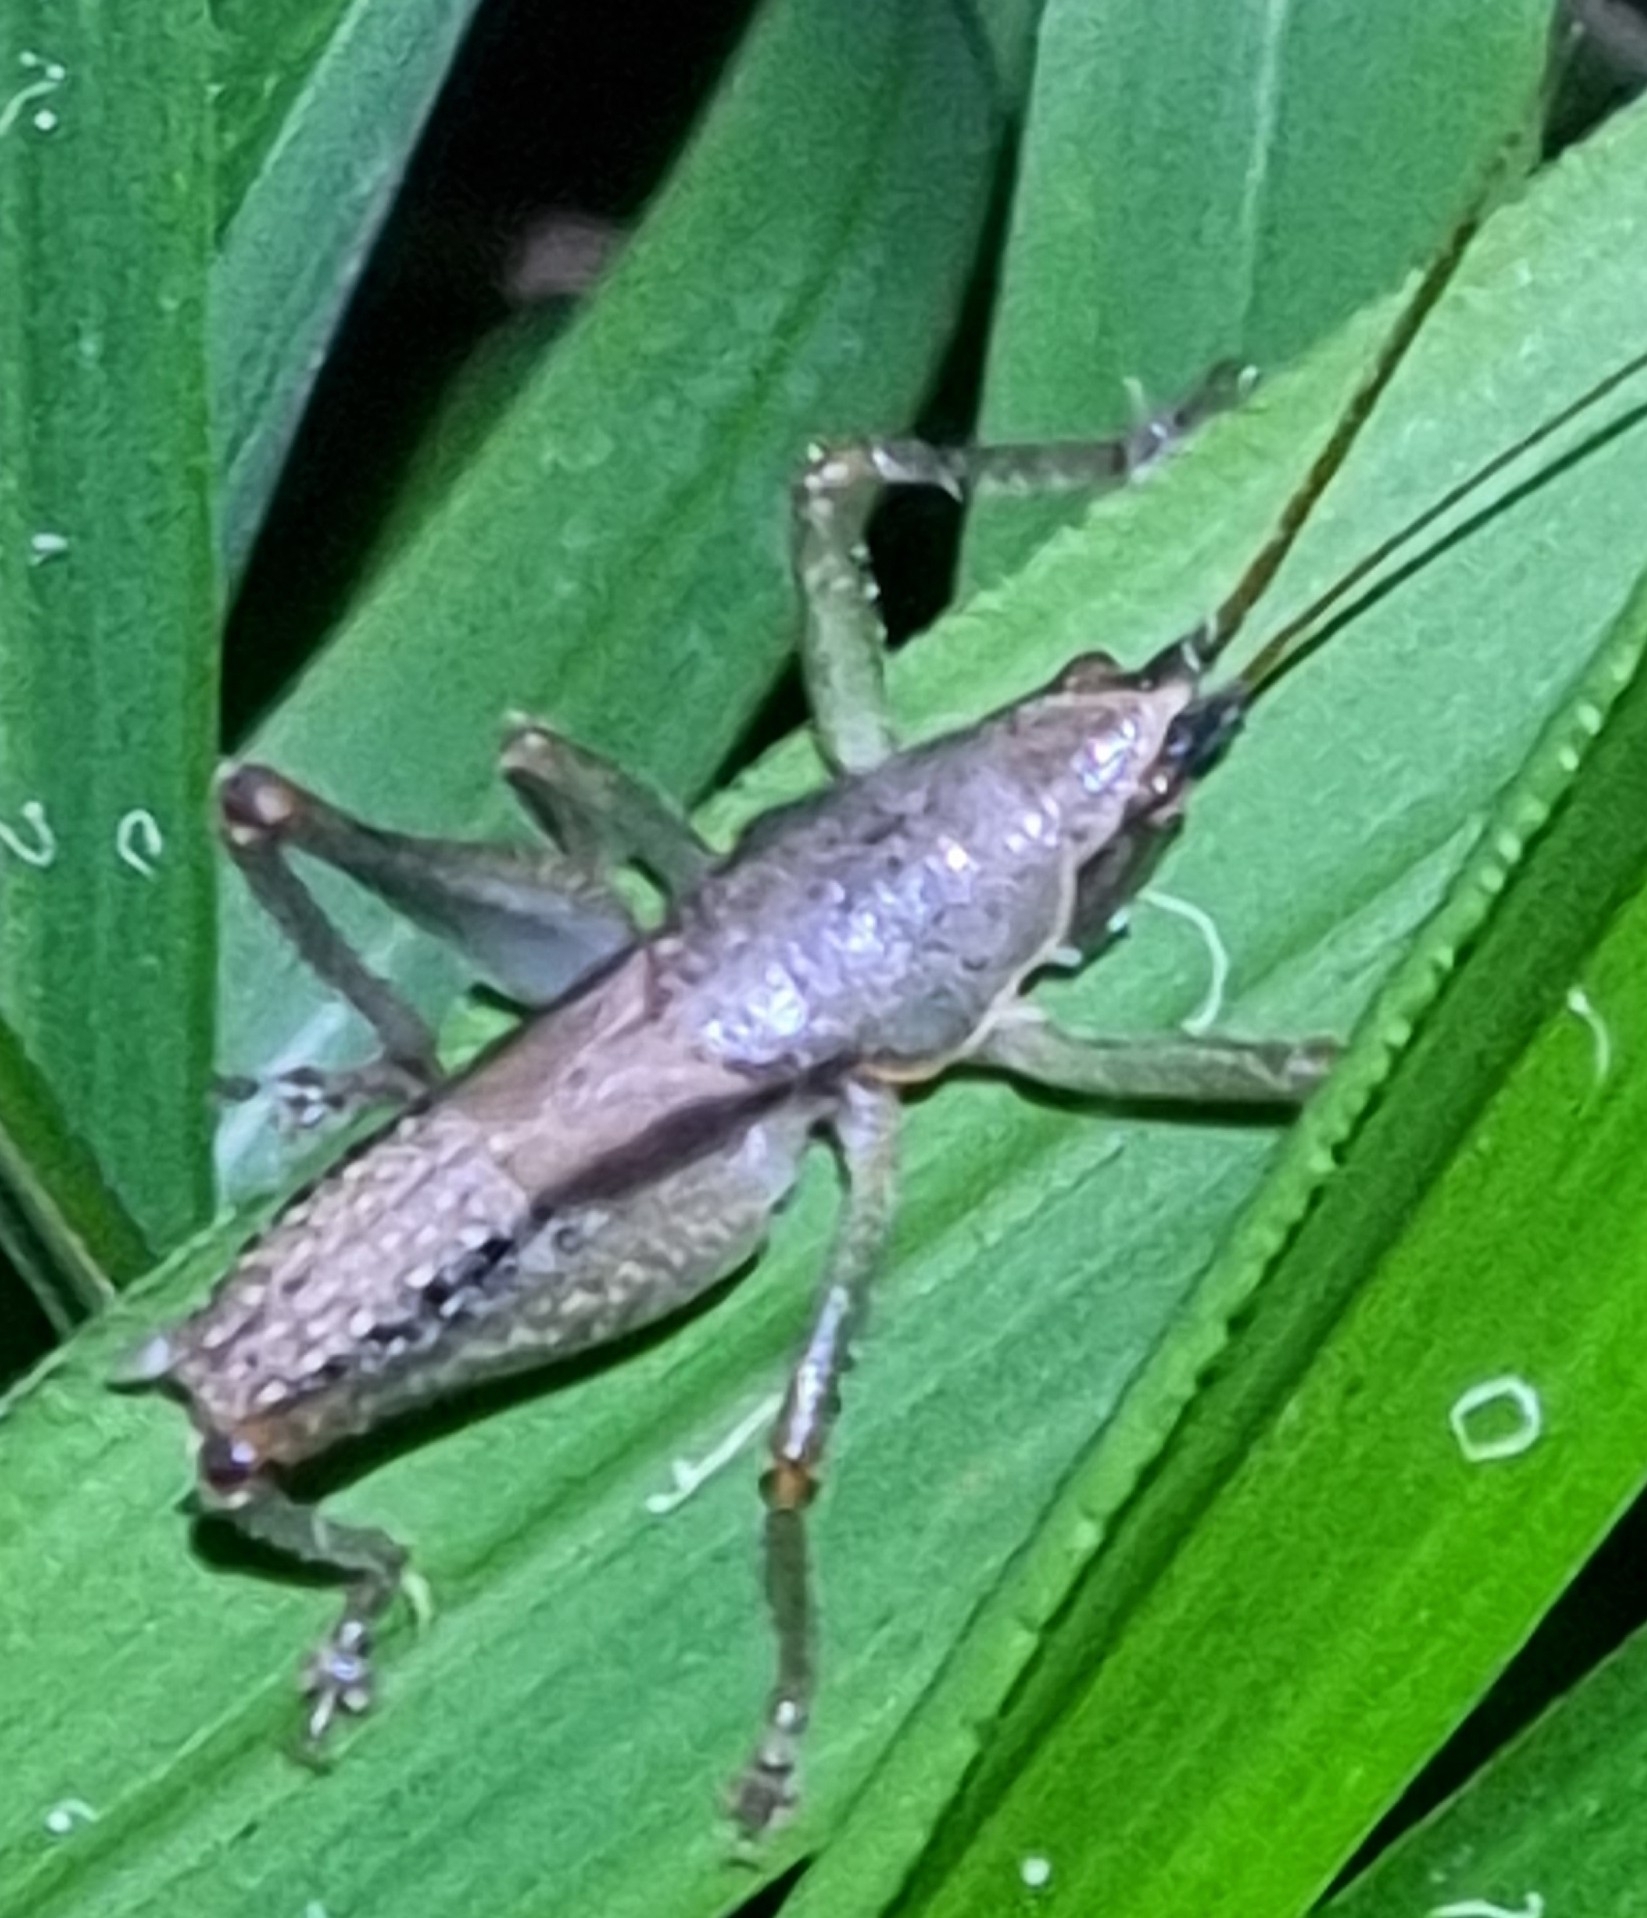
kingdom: Animalia
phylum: Arthropoda
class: Insecta
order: Orthoptera
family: Tettigoniidae
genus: Austrosalomona
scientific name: Austrosalomona falcata
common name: Olive-green coastal katydid
